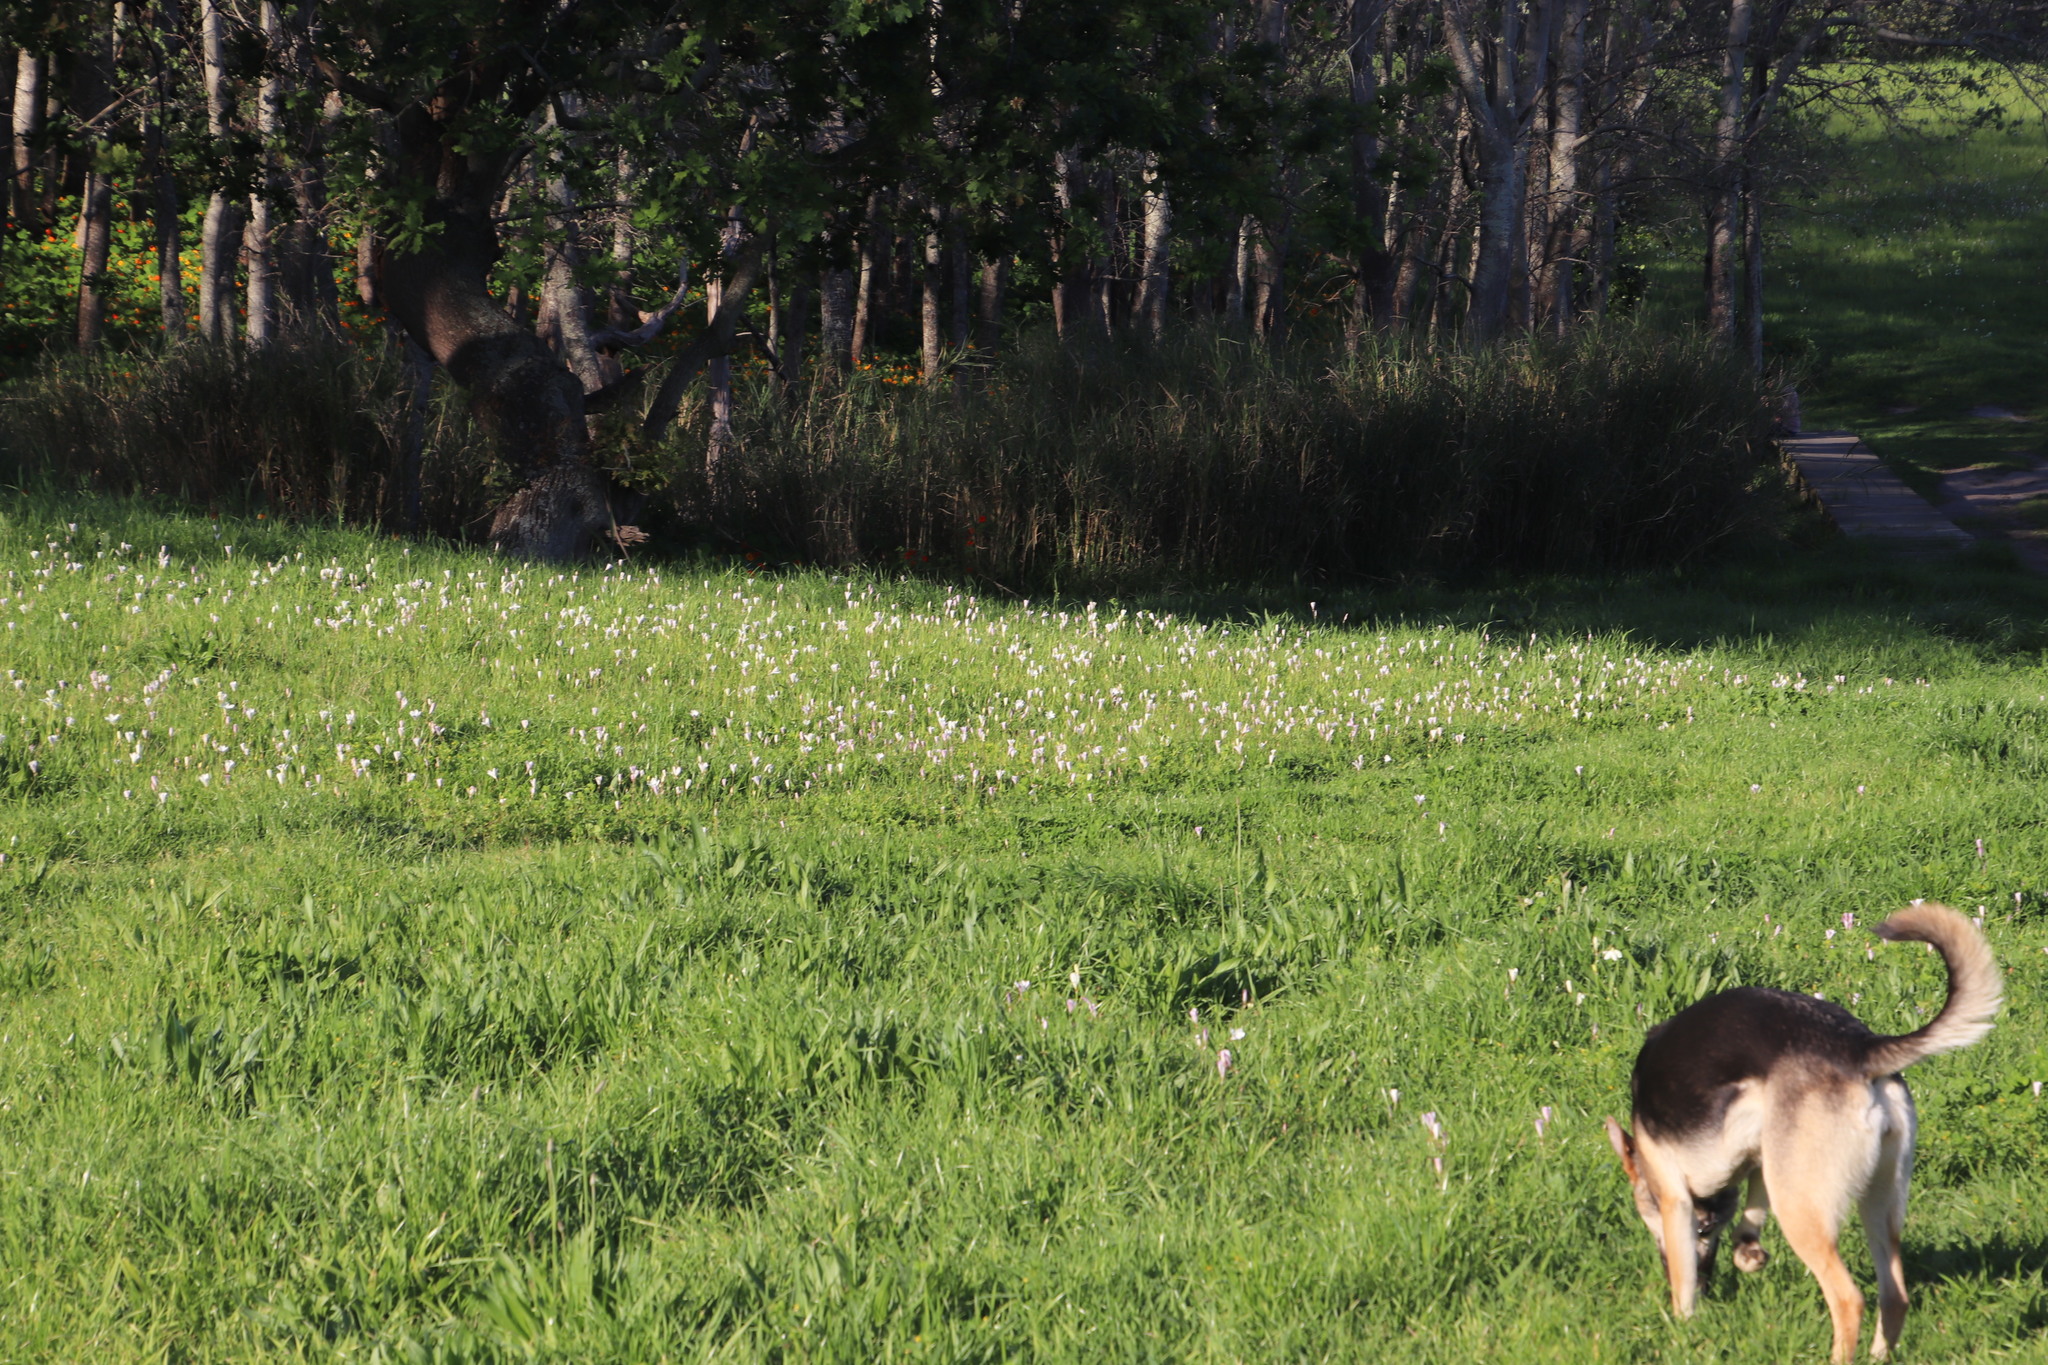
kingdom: Plantae
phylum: Tracheophyta
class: Liliopsida
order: Asparagales
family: Iridaceae
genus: Sparaxis
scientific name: Sparaxis bulbifera
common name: Harlequin-flower
